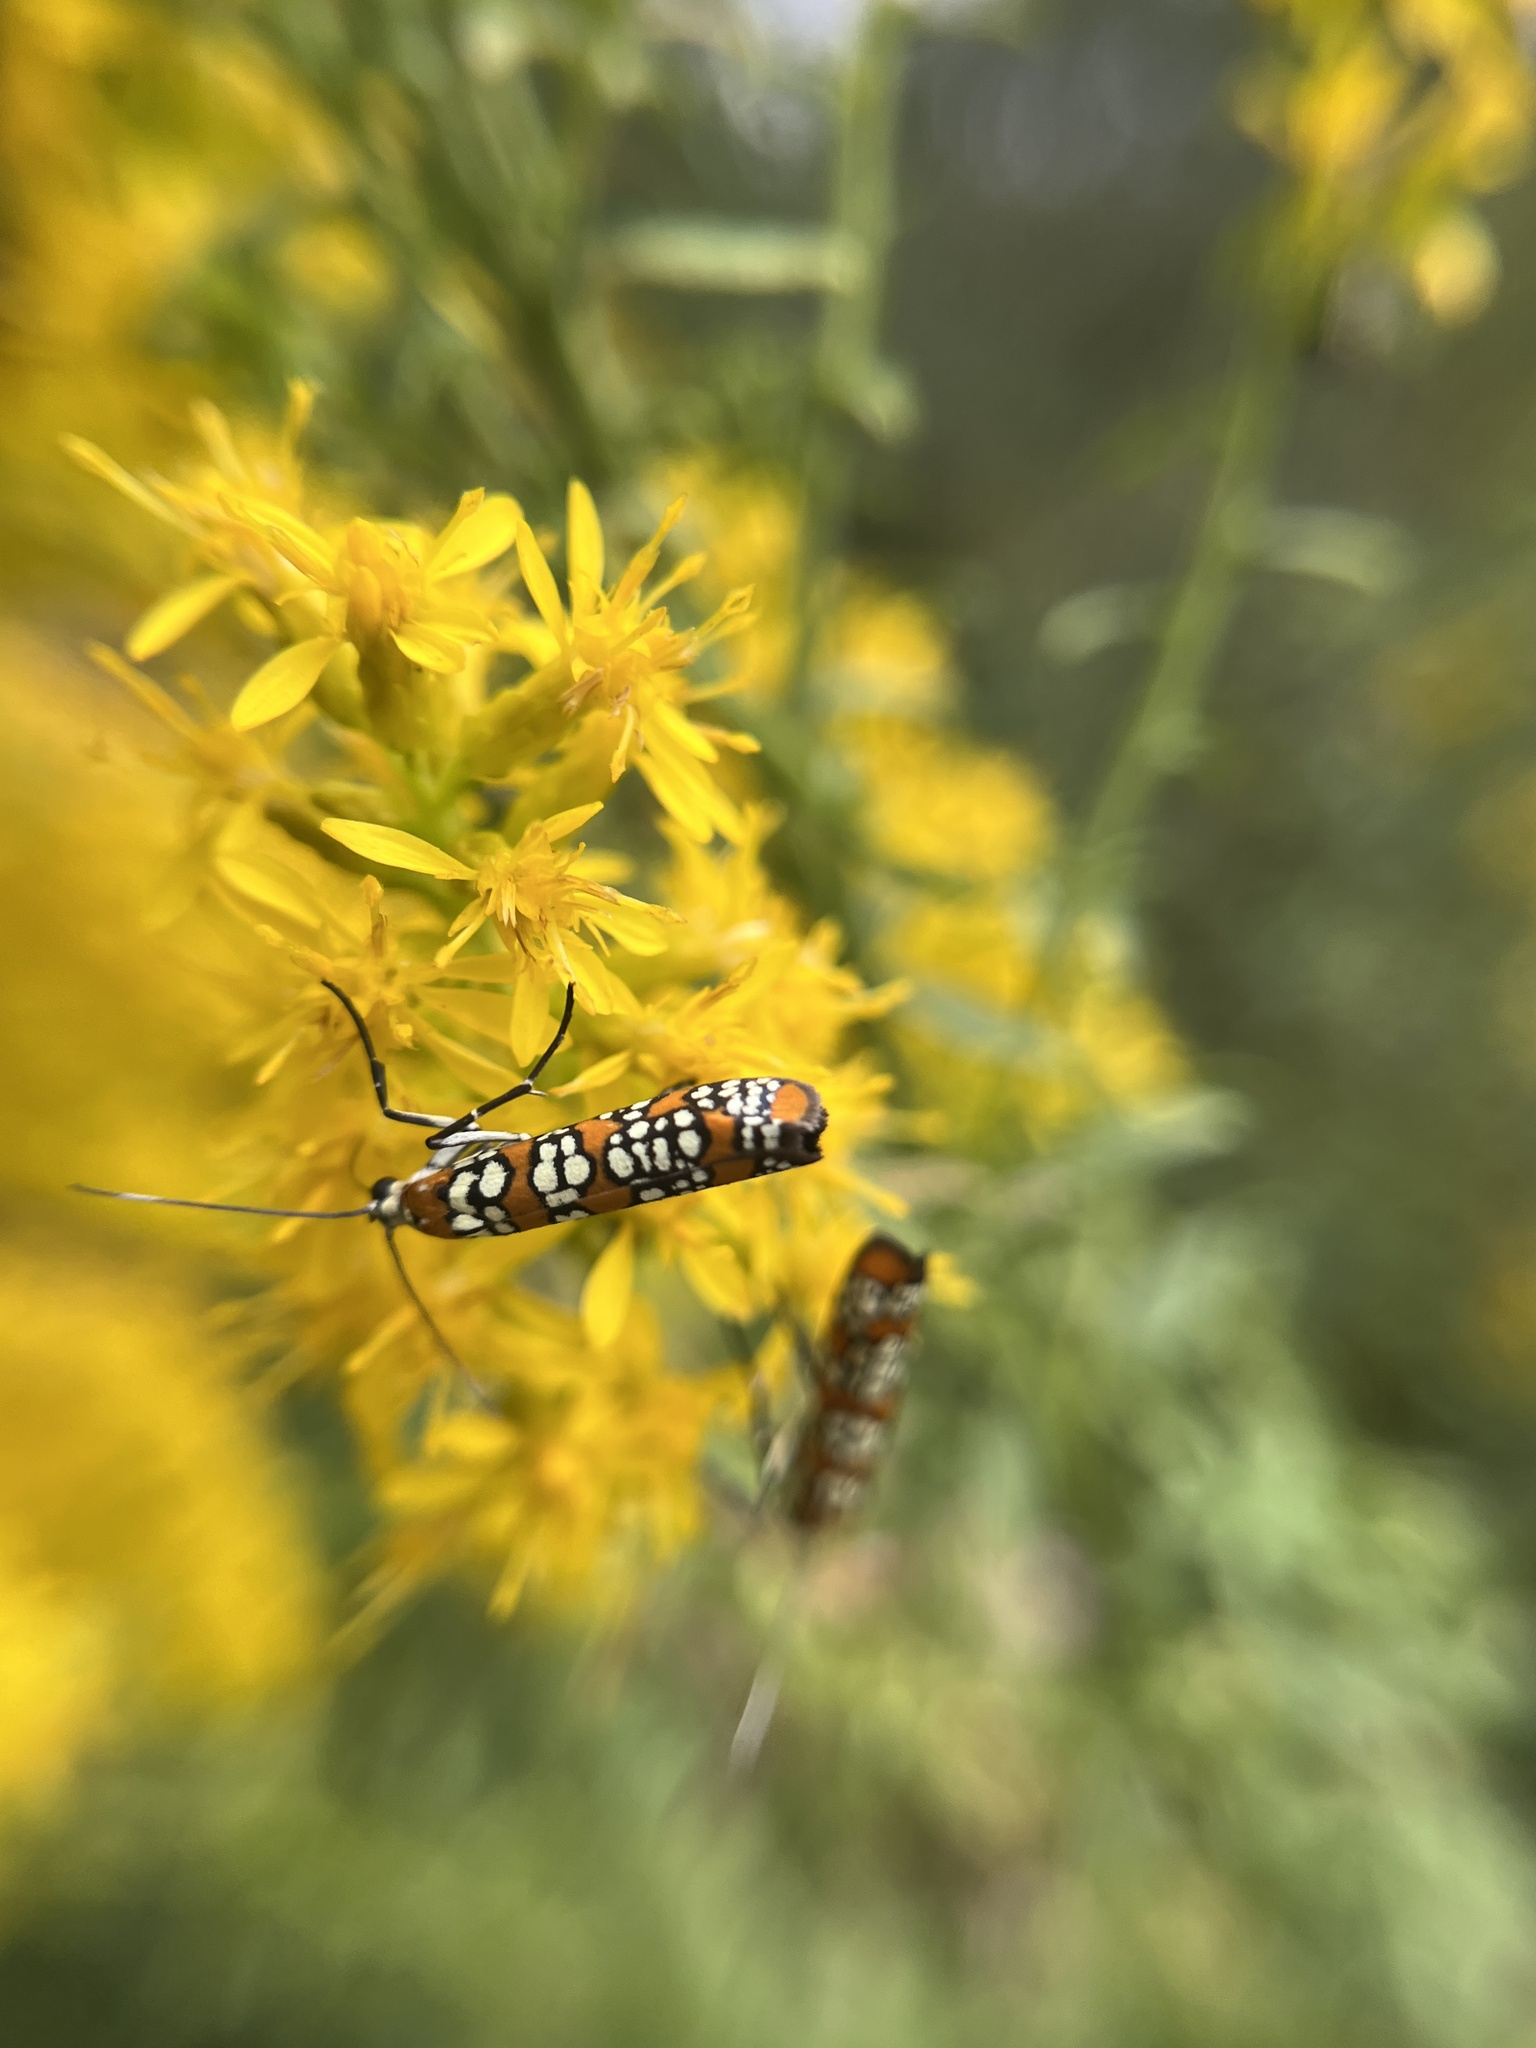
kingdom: Animalia
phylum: Arthropoda
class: Insecta
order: Lepidoptera
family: Attevidae
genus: Atteva
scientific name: Atteva punctella
